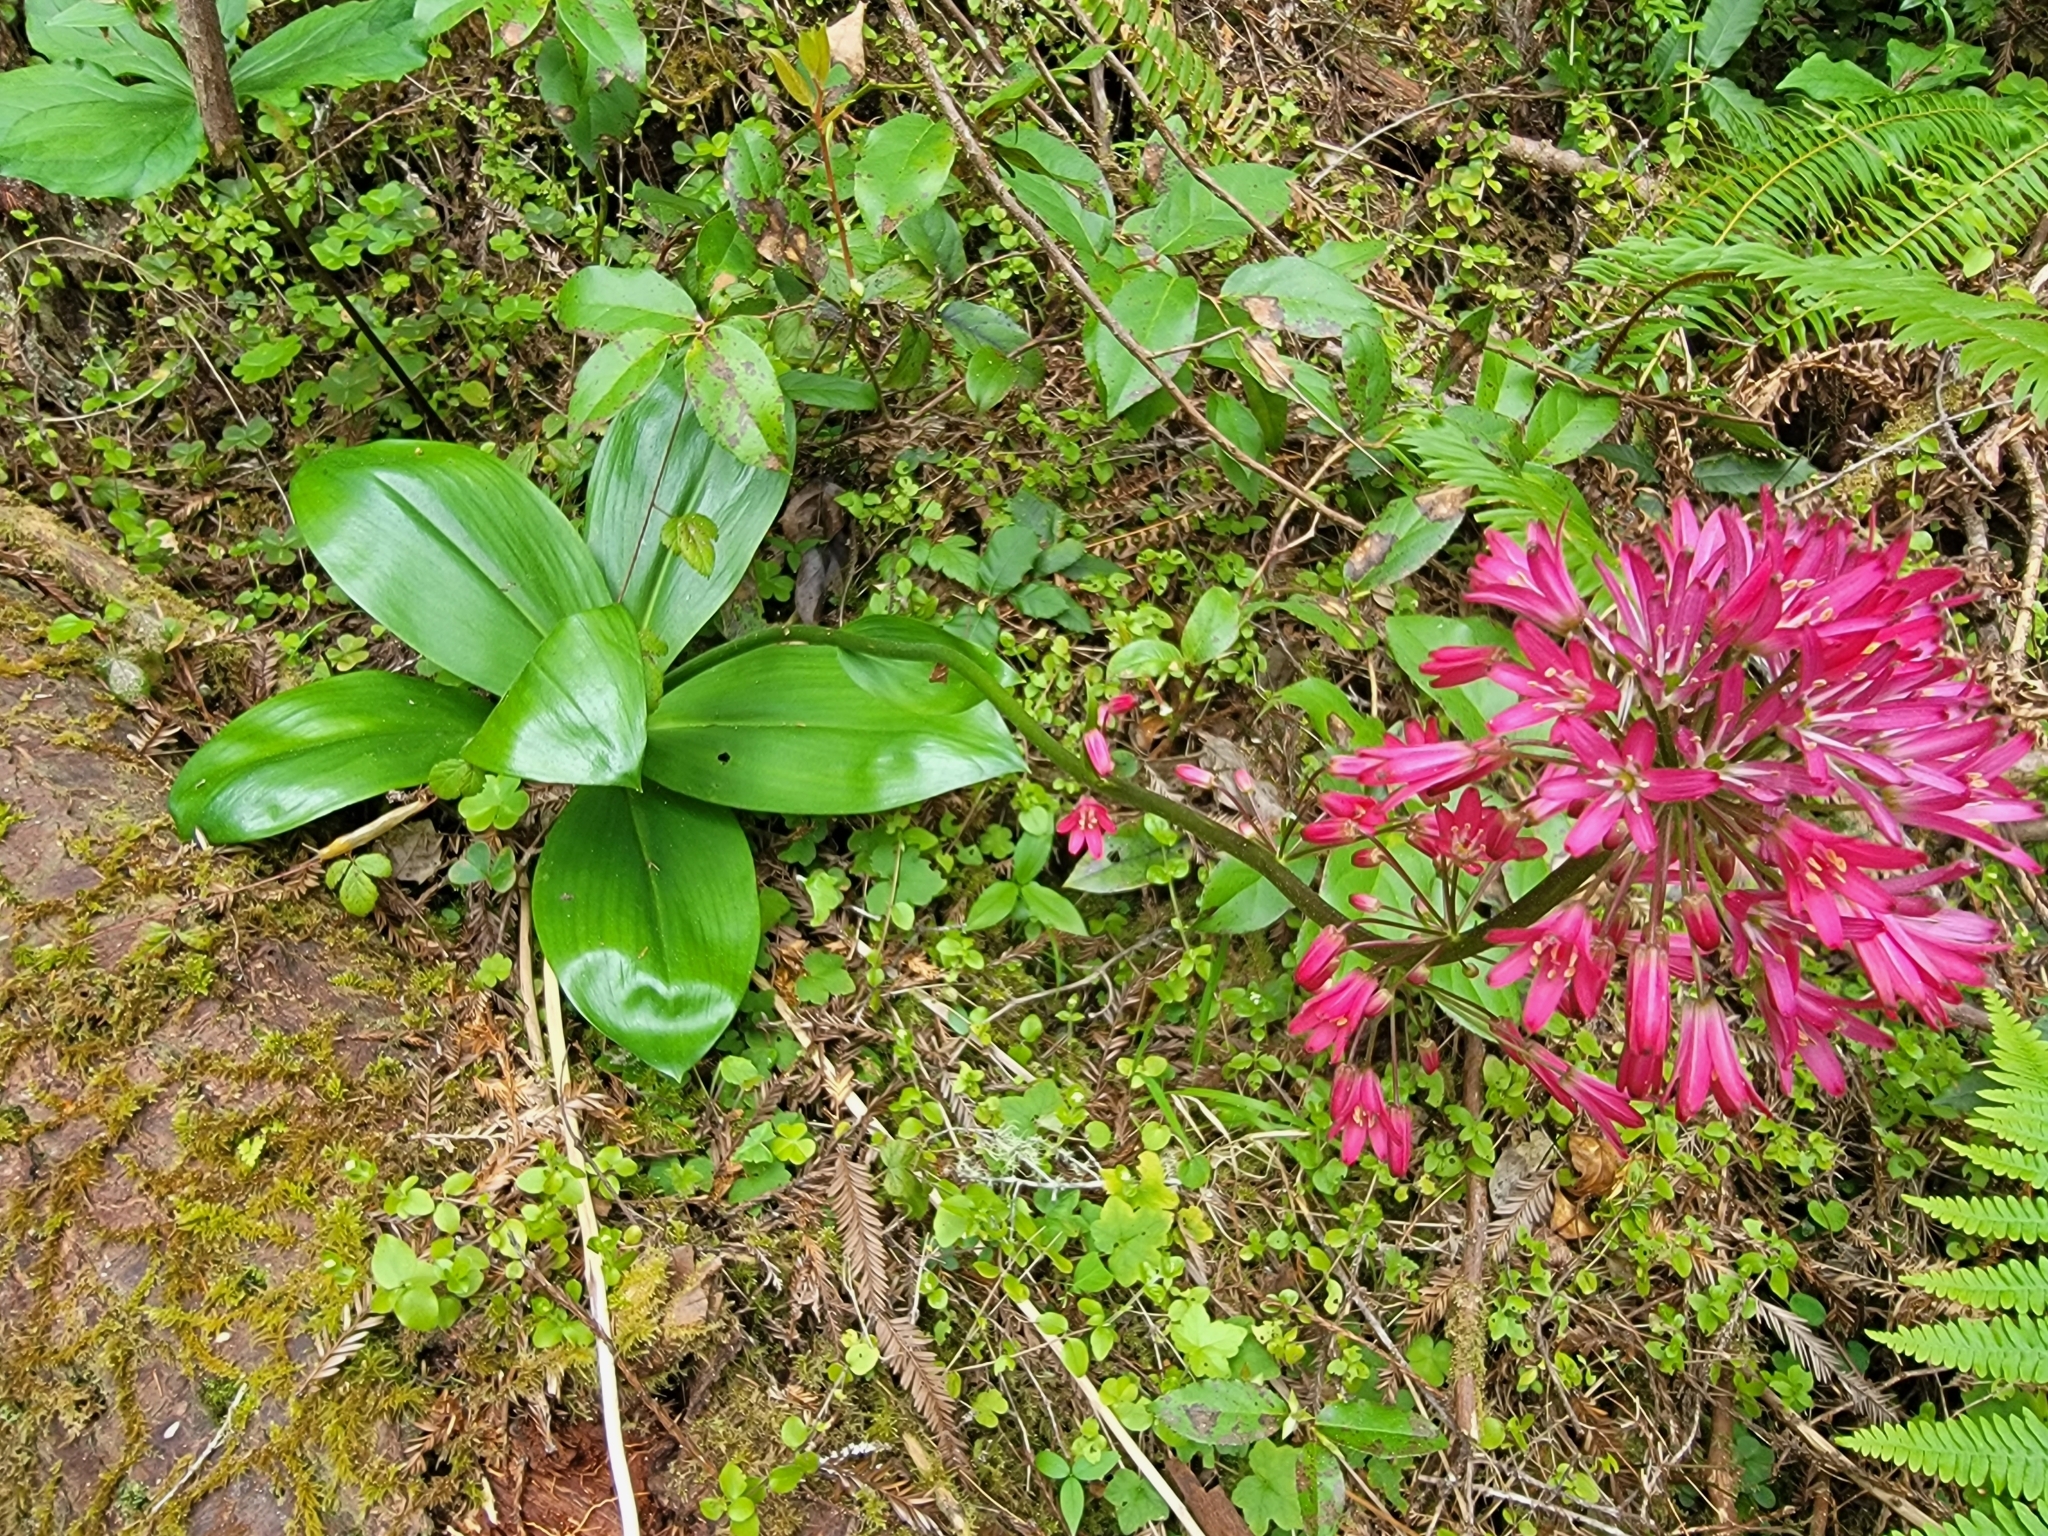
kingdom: Plantae
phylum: Tracheophyta
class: Liliopsida
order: Liliales
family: Liliaceae
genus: Clintonia
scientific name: Clintonia andrewsiana
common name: Red clintonia
